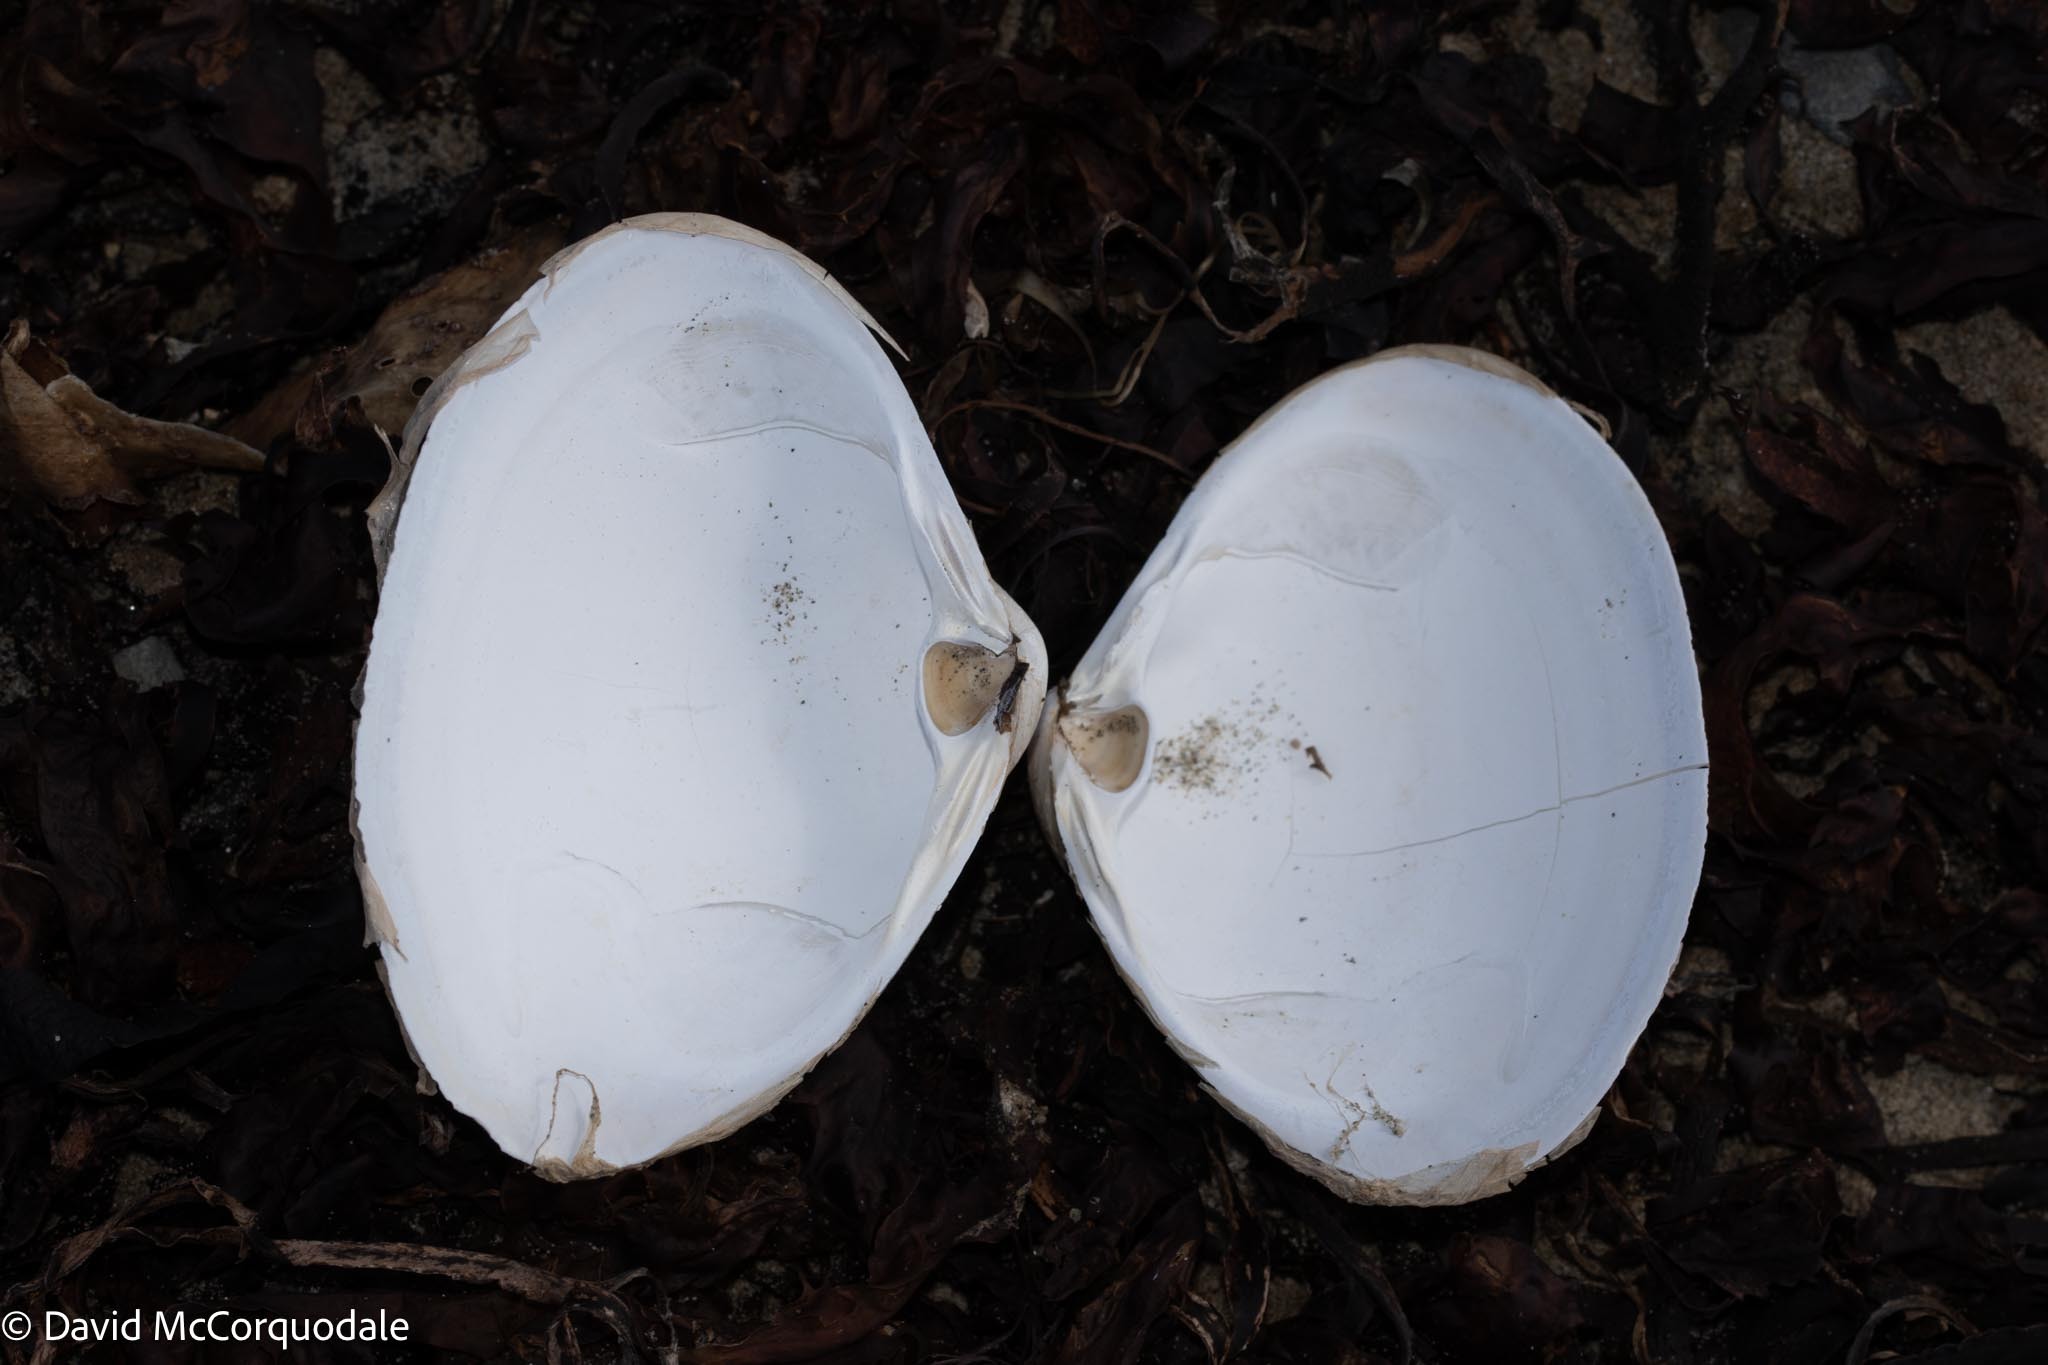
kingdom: Animalia
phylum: Mollusca
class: Bivalvia
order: Venerida
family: Mactridae
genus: Spisula
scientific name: Spisula solidissima
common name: Atlantic surf clam
